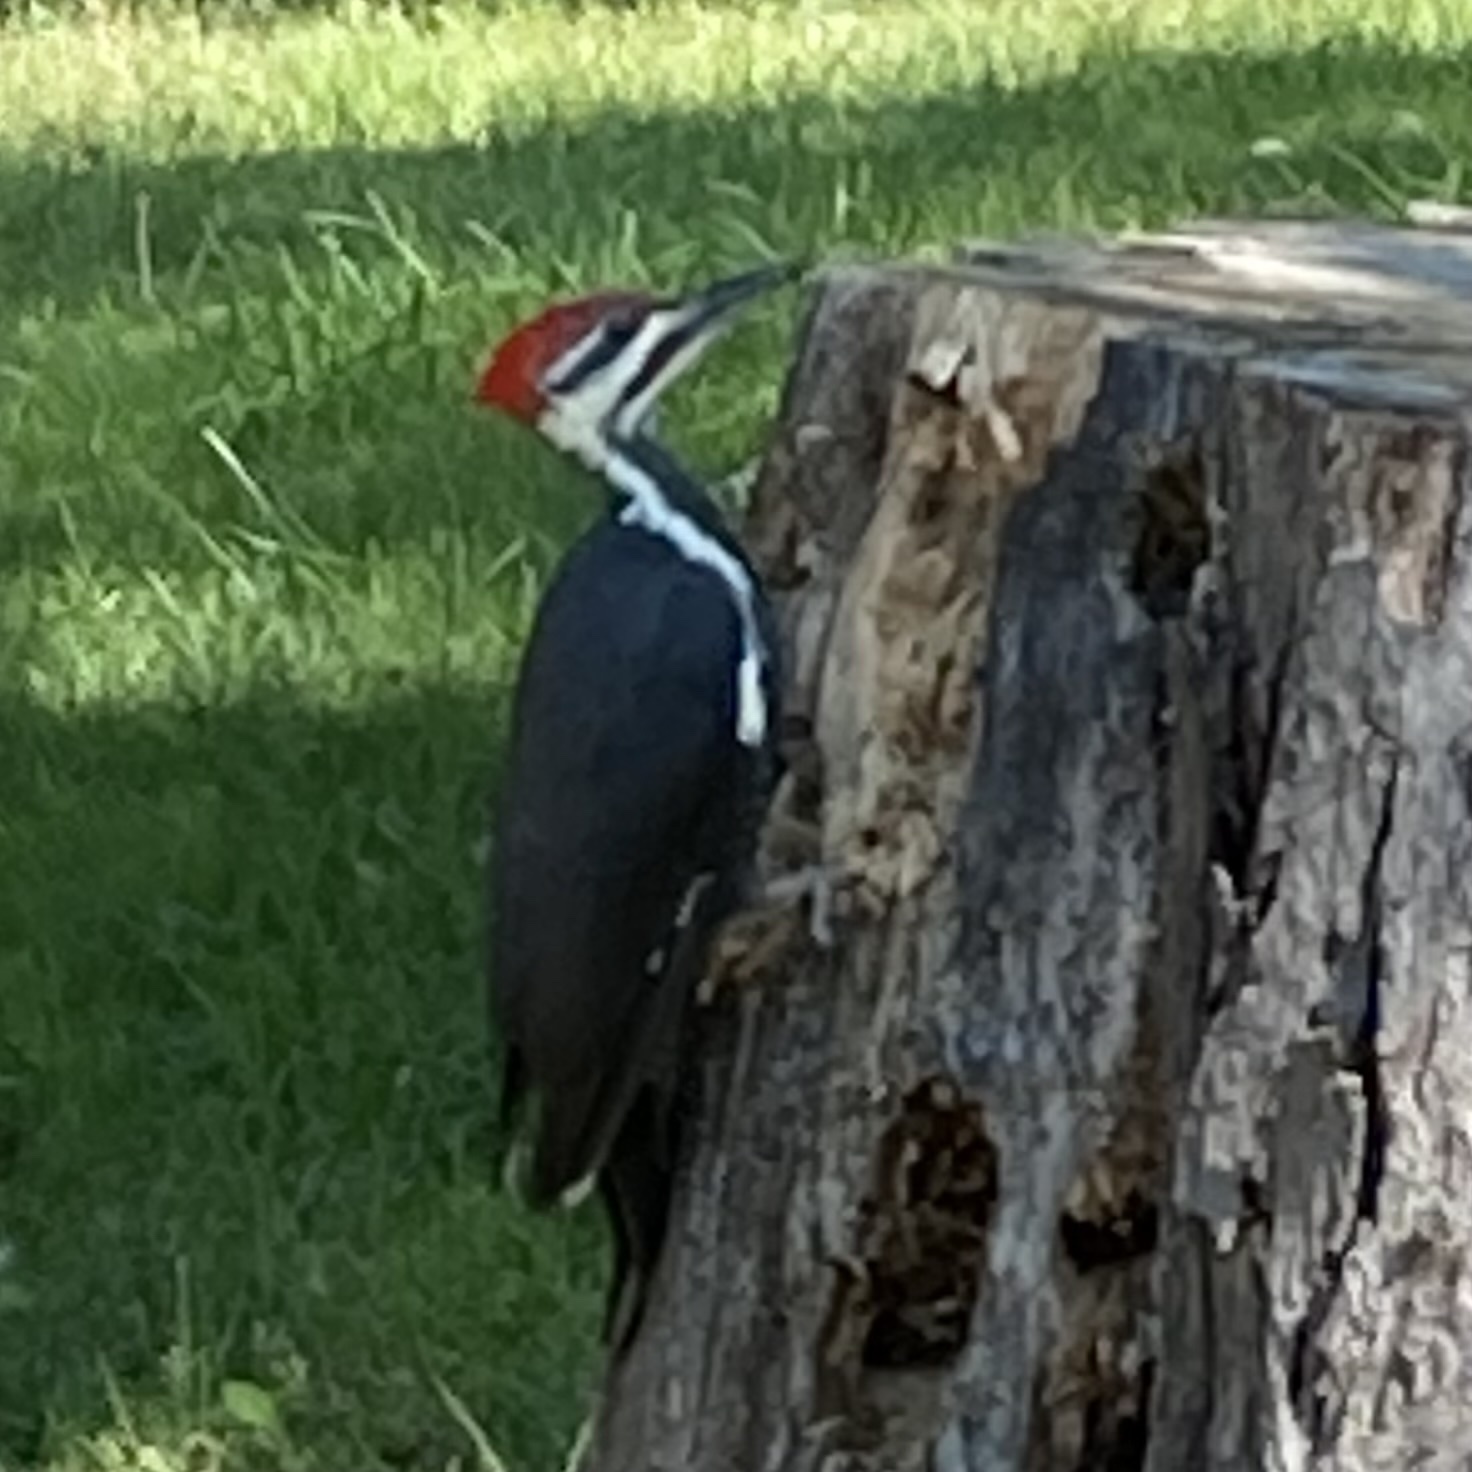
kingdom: Animalia
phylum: Chordata
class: Aves
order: Piciformes
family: Picidae
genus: Dryocopus
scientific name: Dryocopus pileatus
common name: Pileated woodpecker
